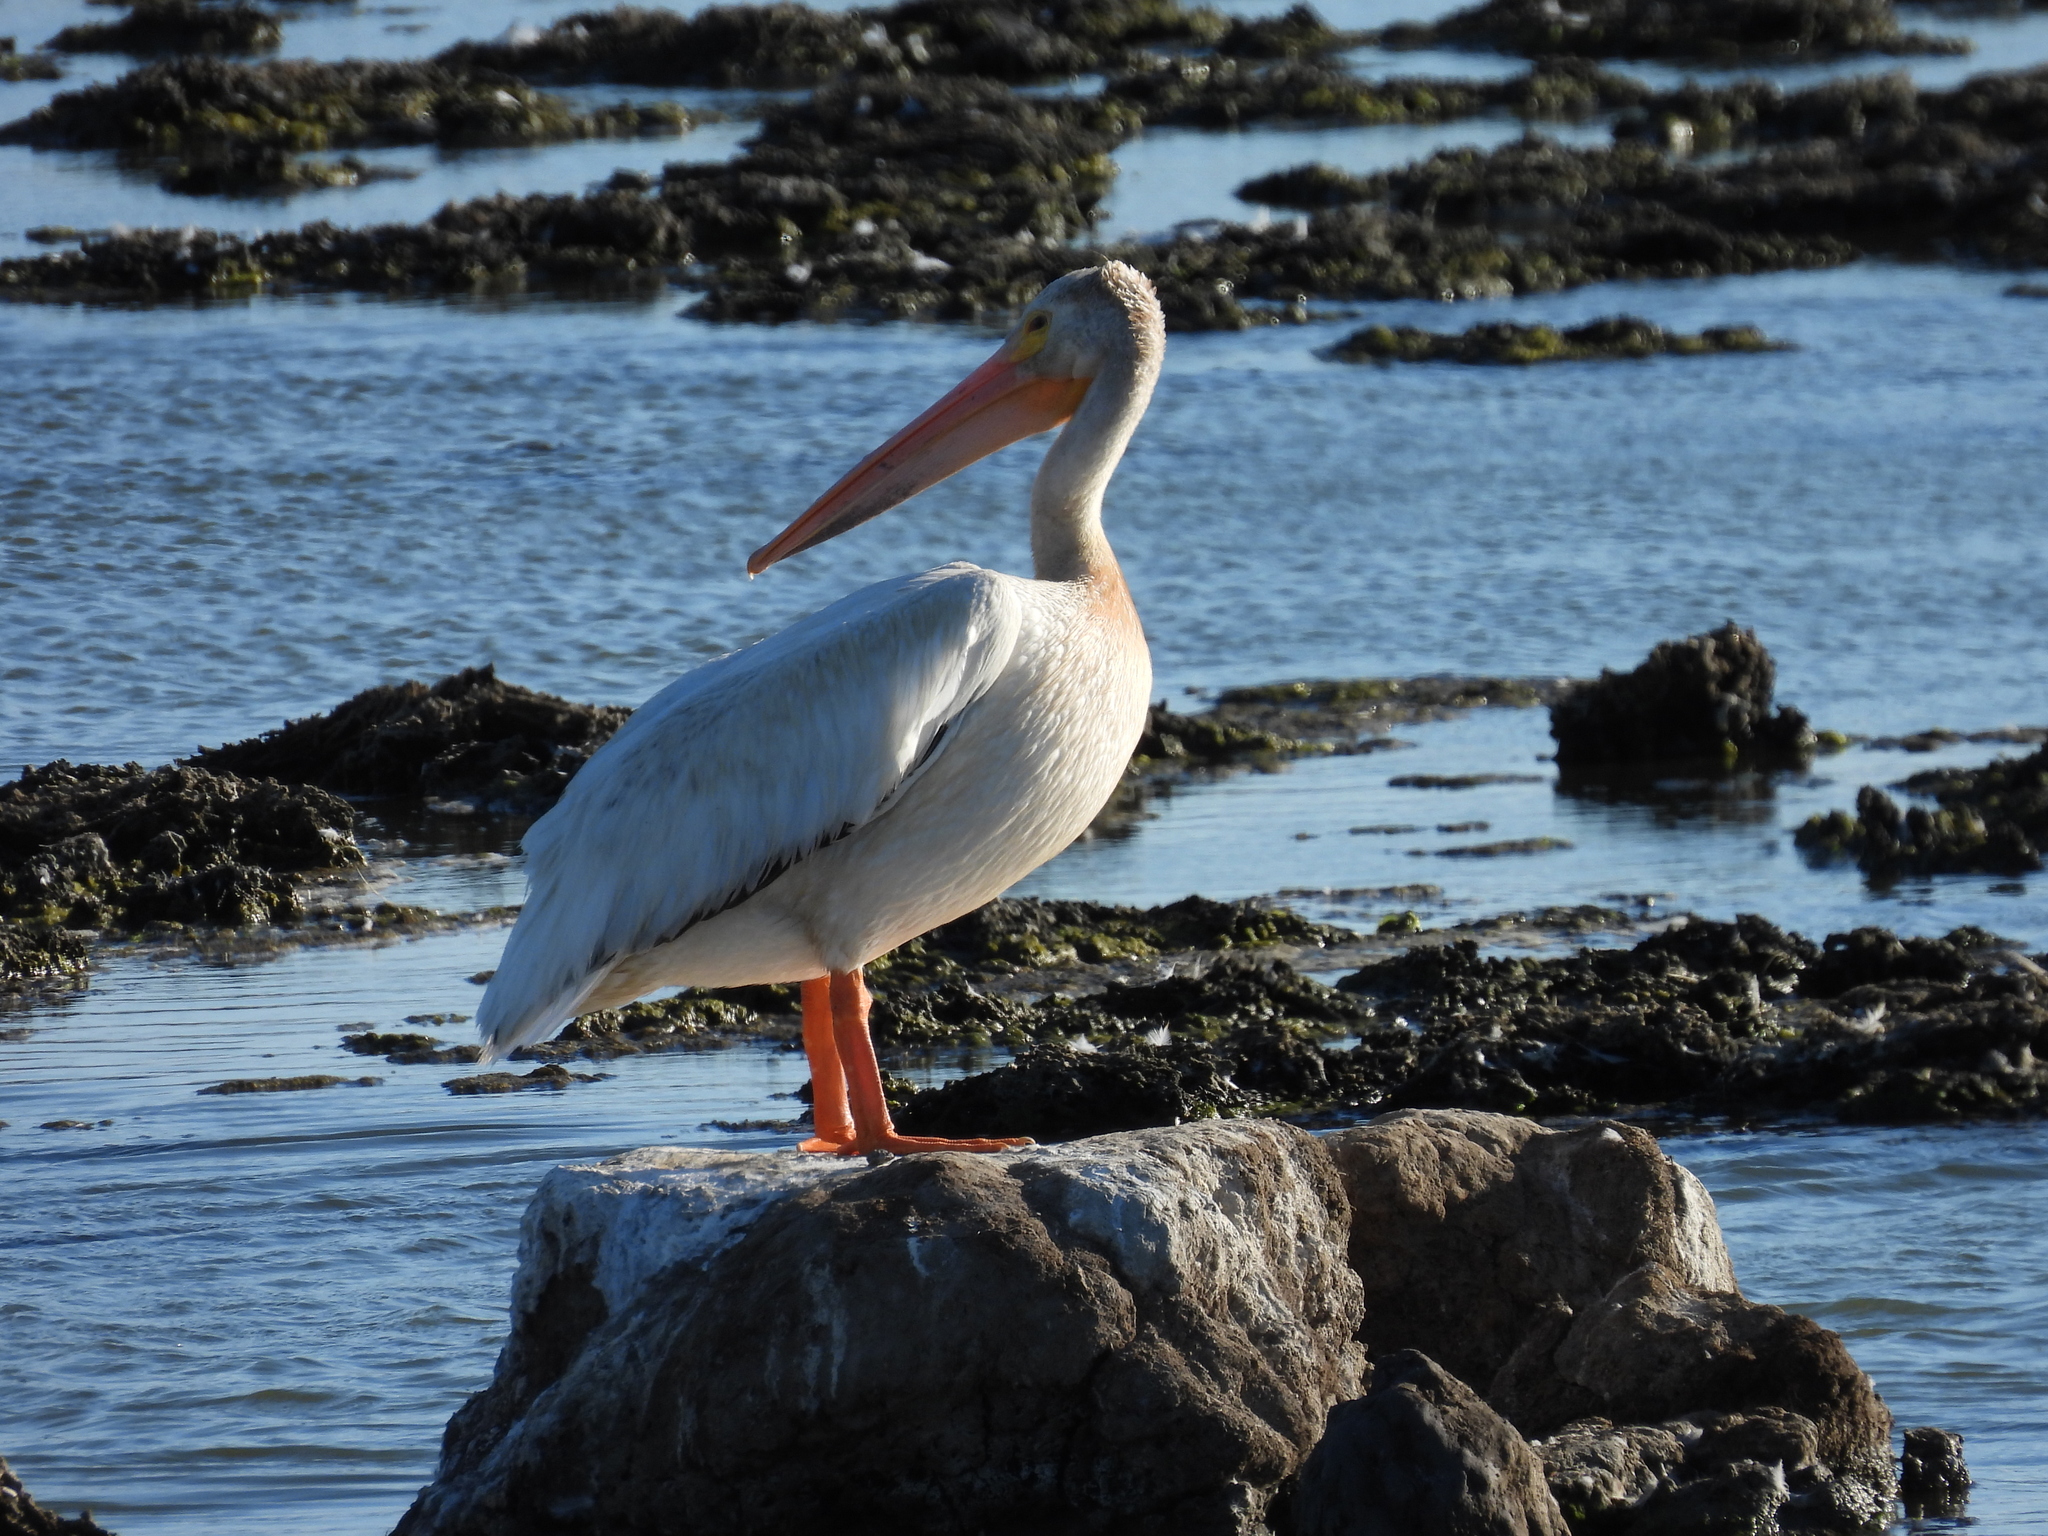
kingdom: Animalia
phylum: Chordata
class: Aves
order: Pelecaniformes
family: Pelecanidae
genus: Pelecanus
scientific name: Pelecanus erythrorhynchos
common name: American white pelican
